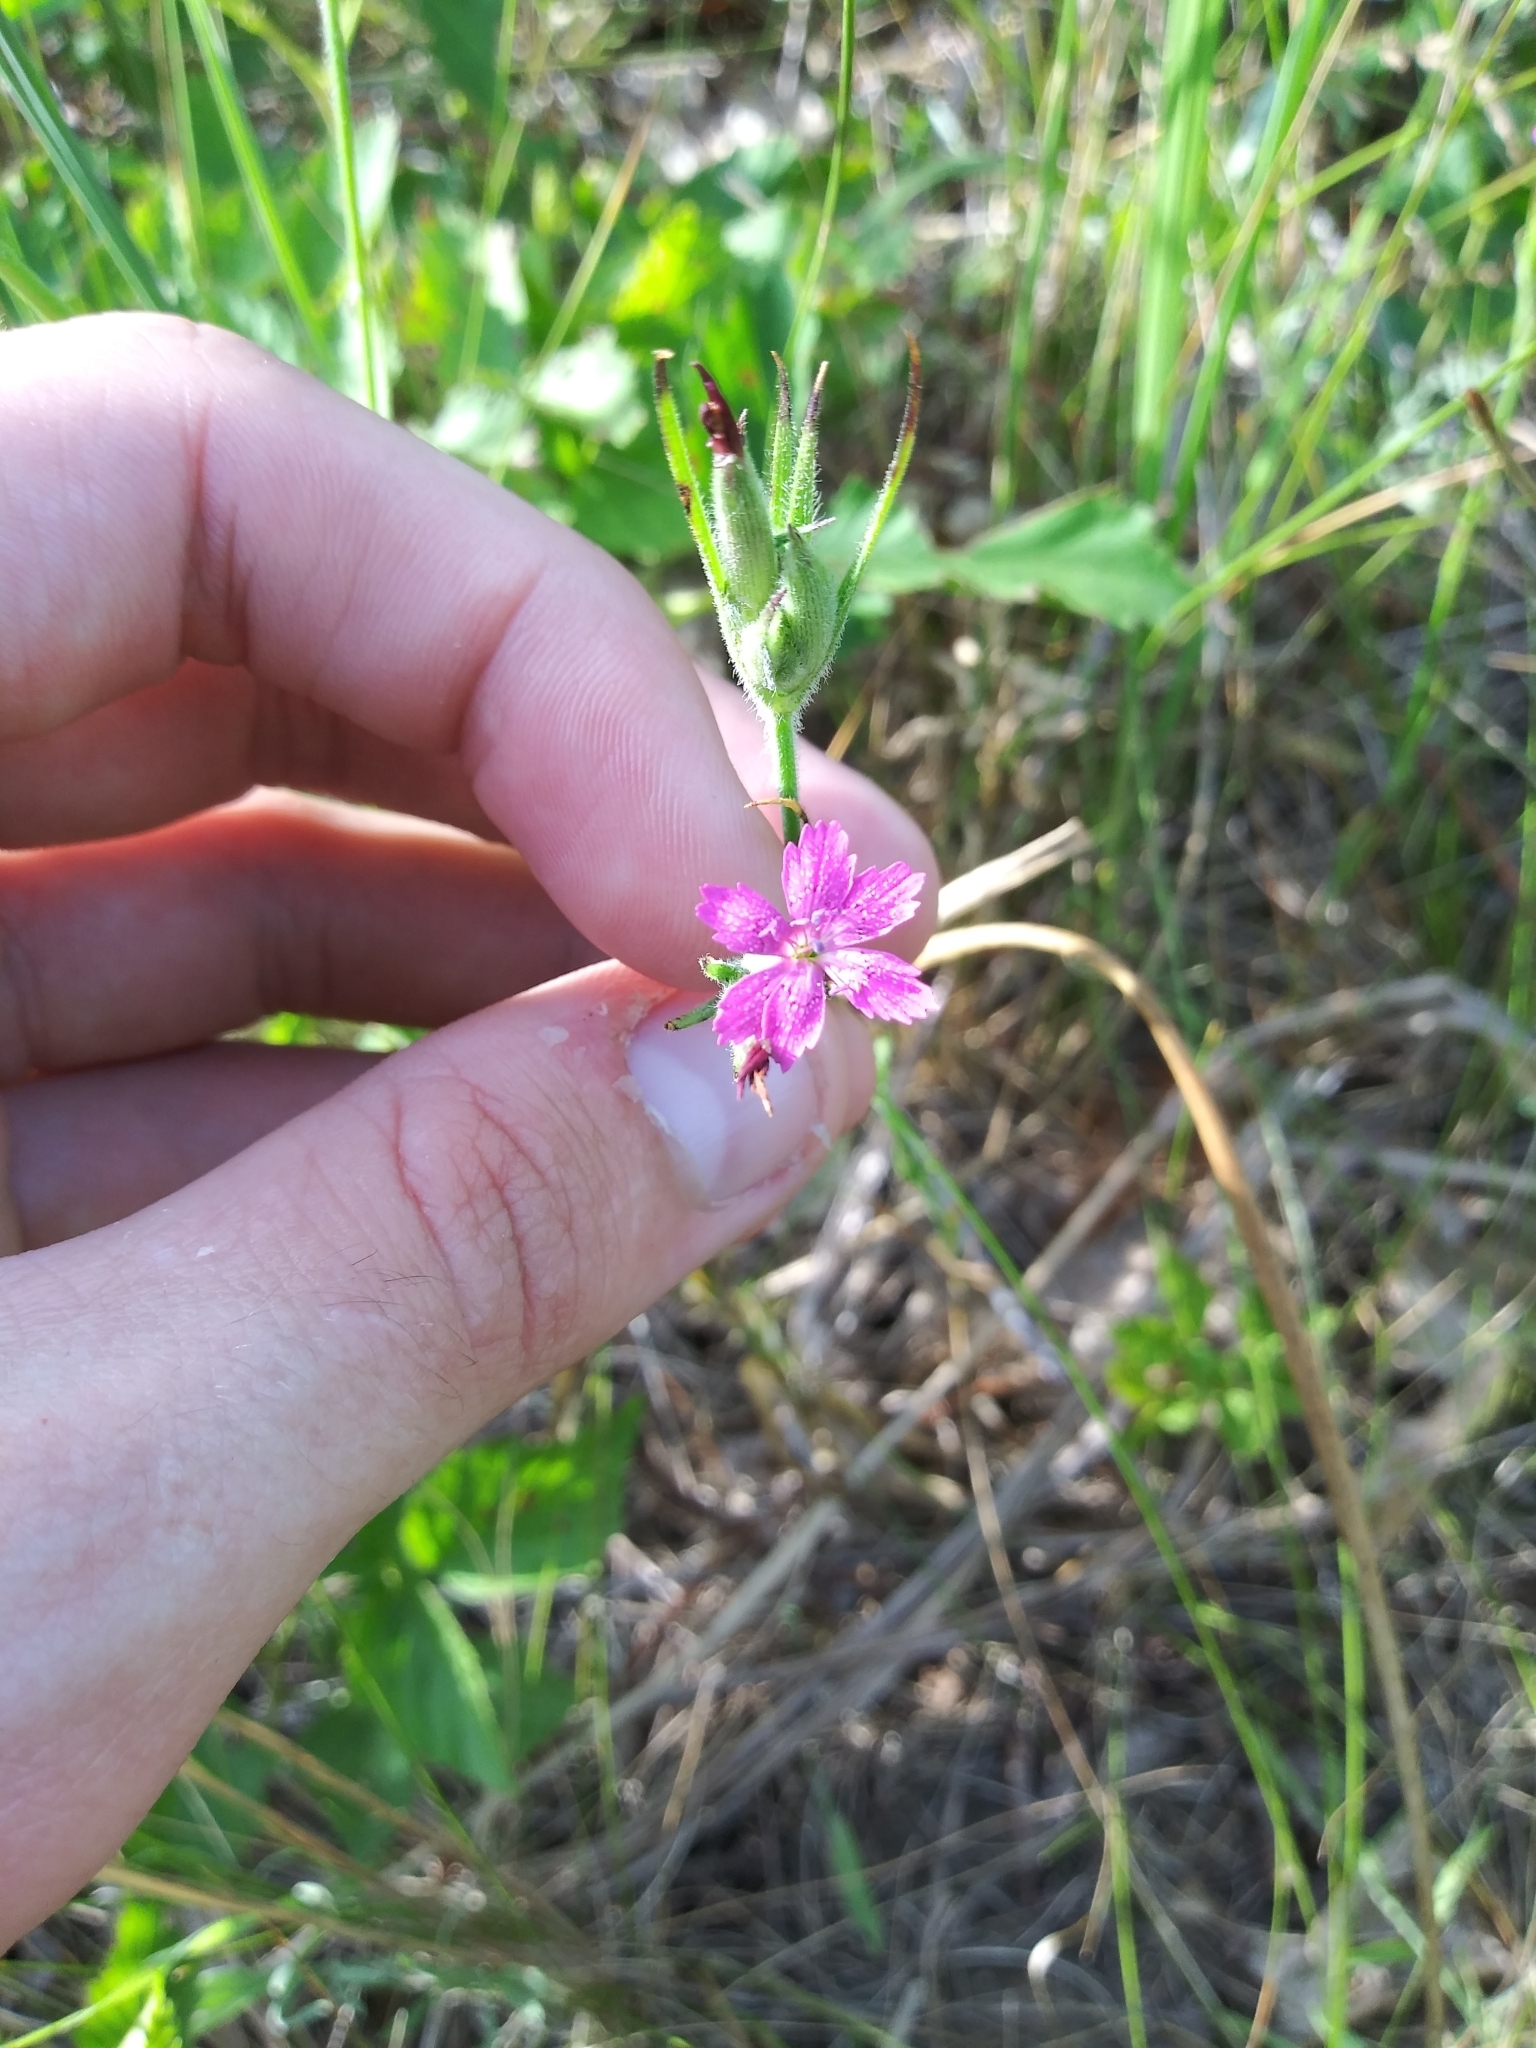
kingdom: Plantae
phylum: Tracheophyta
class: Magnoliopsida
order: Caryophyllales
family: Caryophyllaceae
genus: Dianthus
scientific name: Dianthus armeria
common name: Deptford pink
